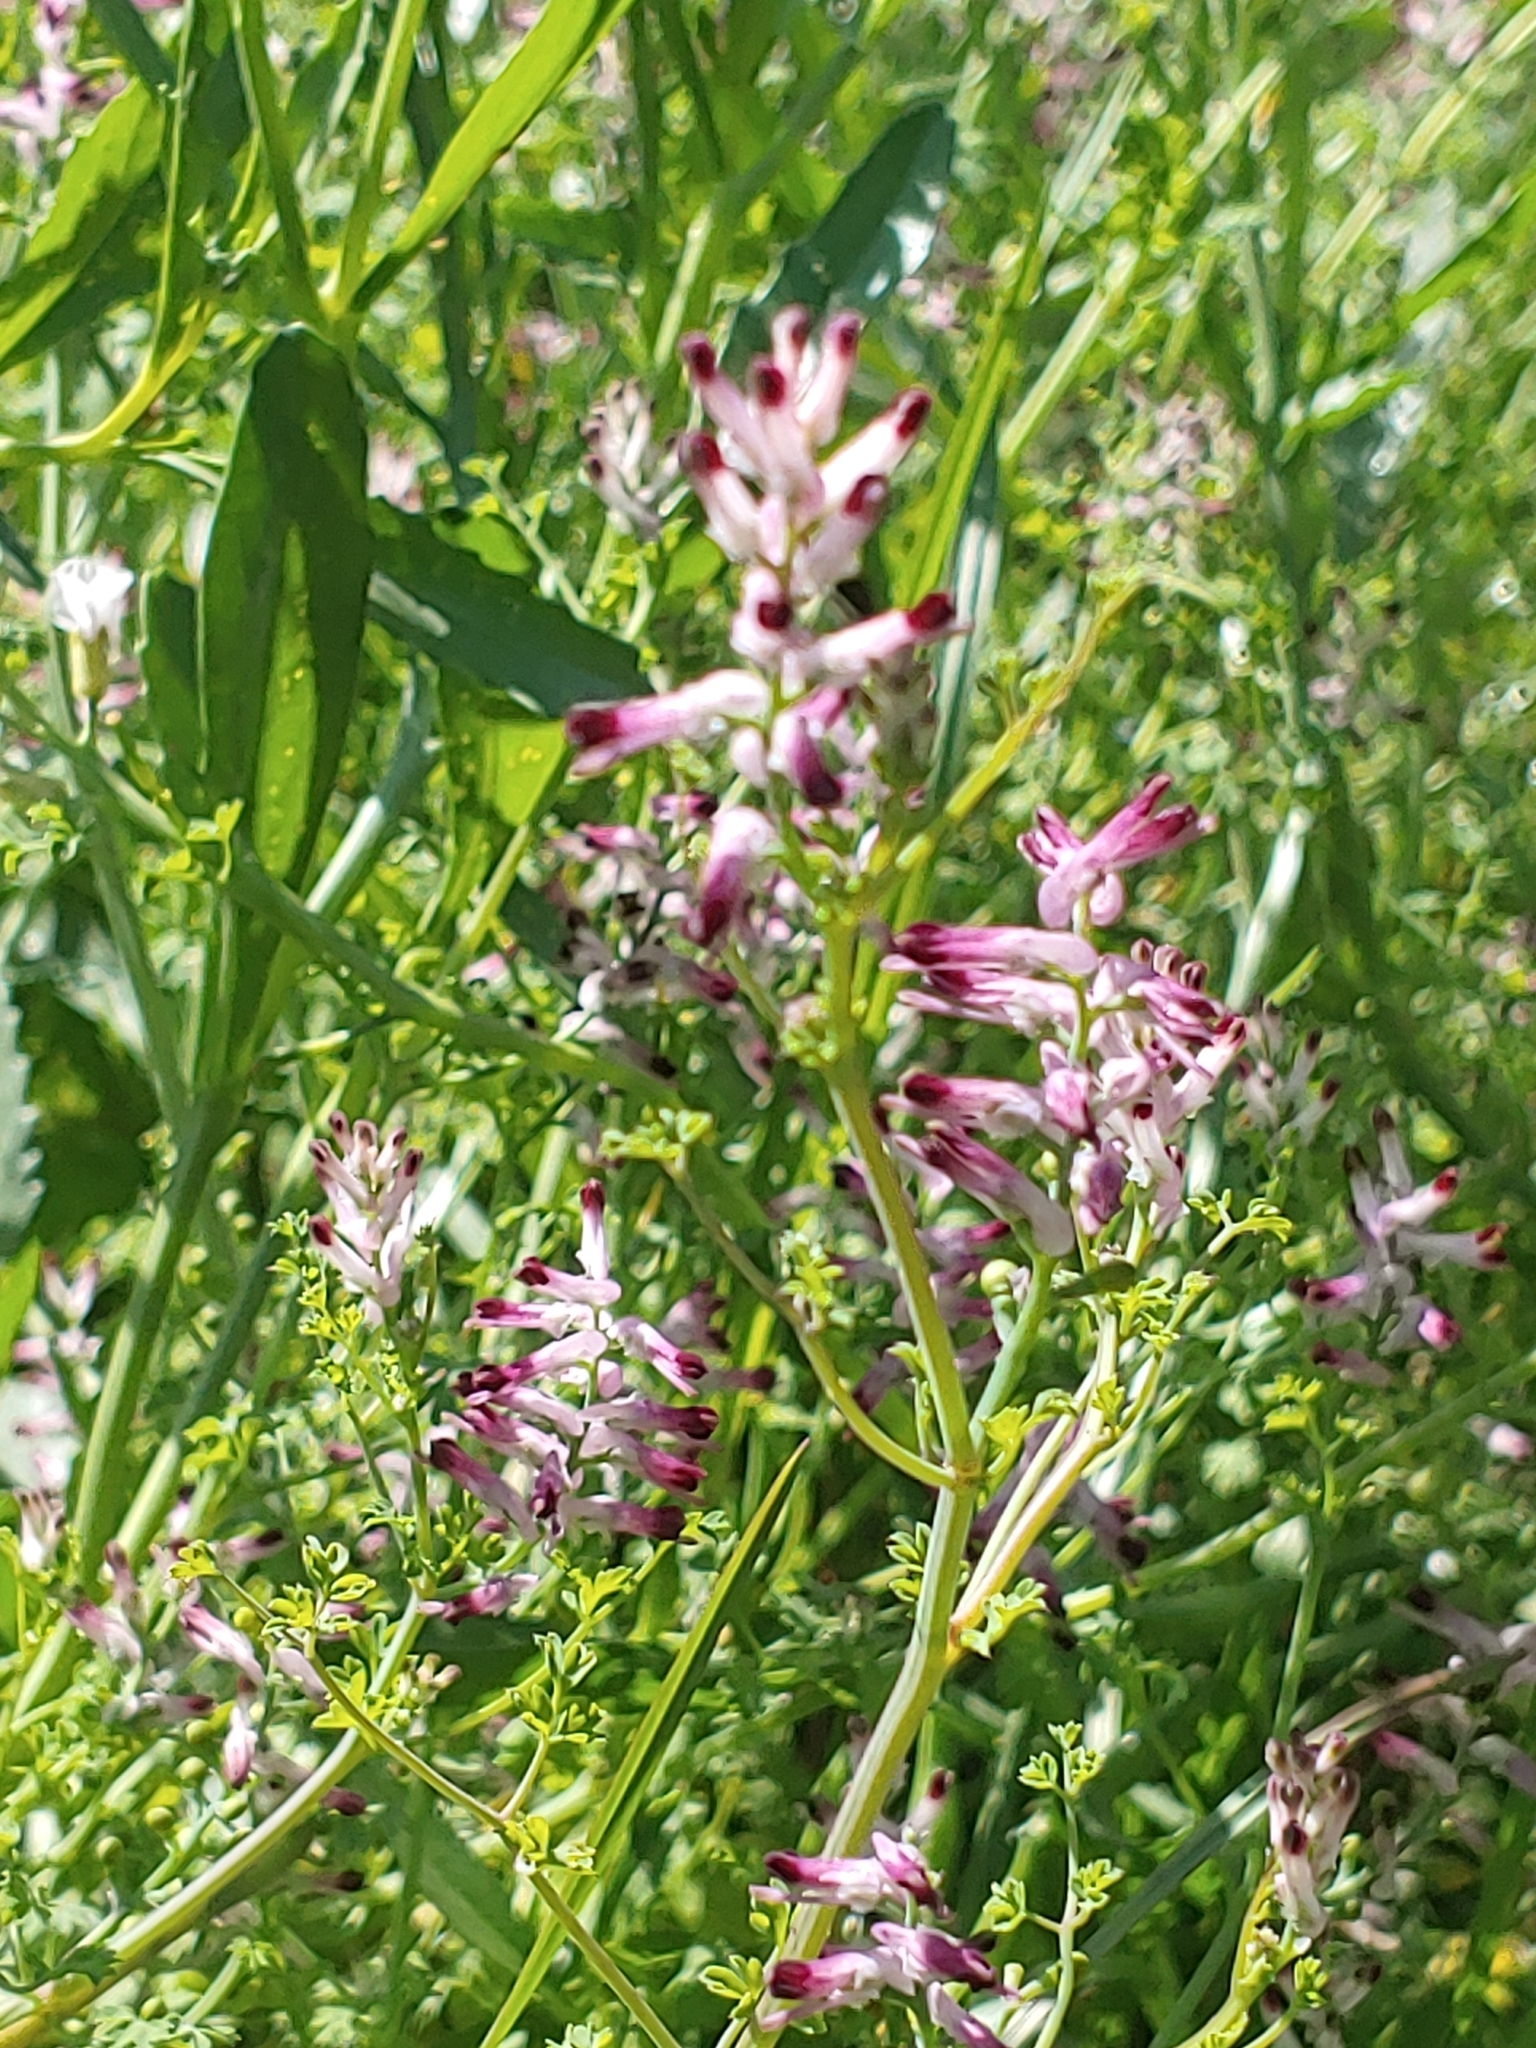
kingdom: Plantae
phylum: Tracheophyta
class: Magnoliopsida
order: Ranunculales
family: Papaveraceae
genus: Fumaria
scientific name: Fumaria muralis
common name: Common ramping-fumitory
